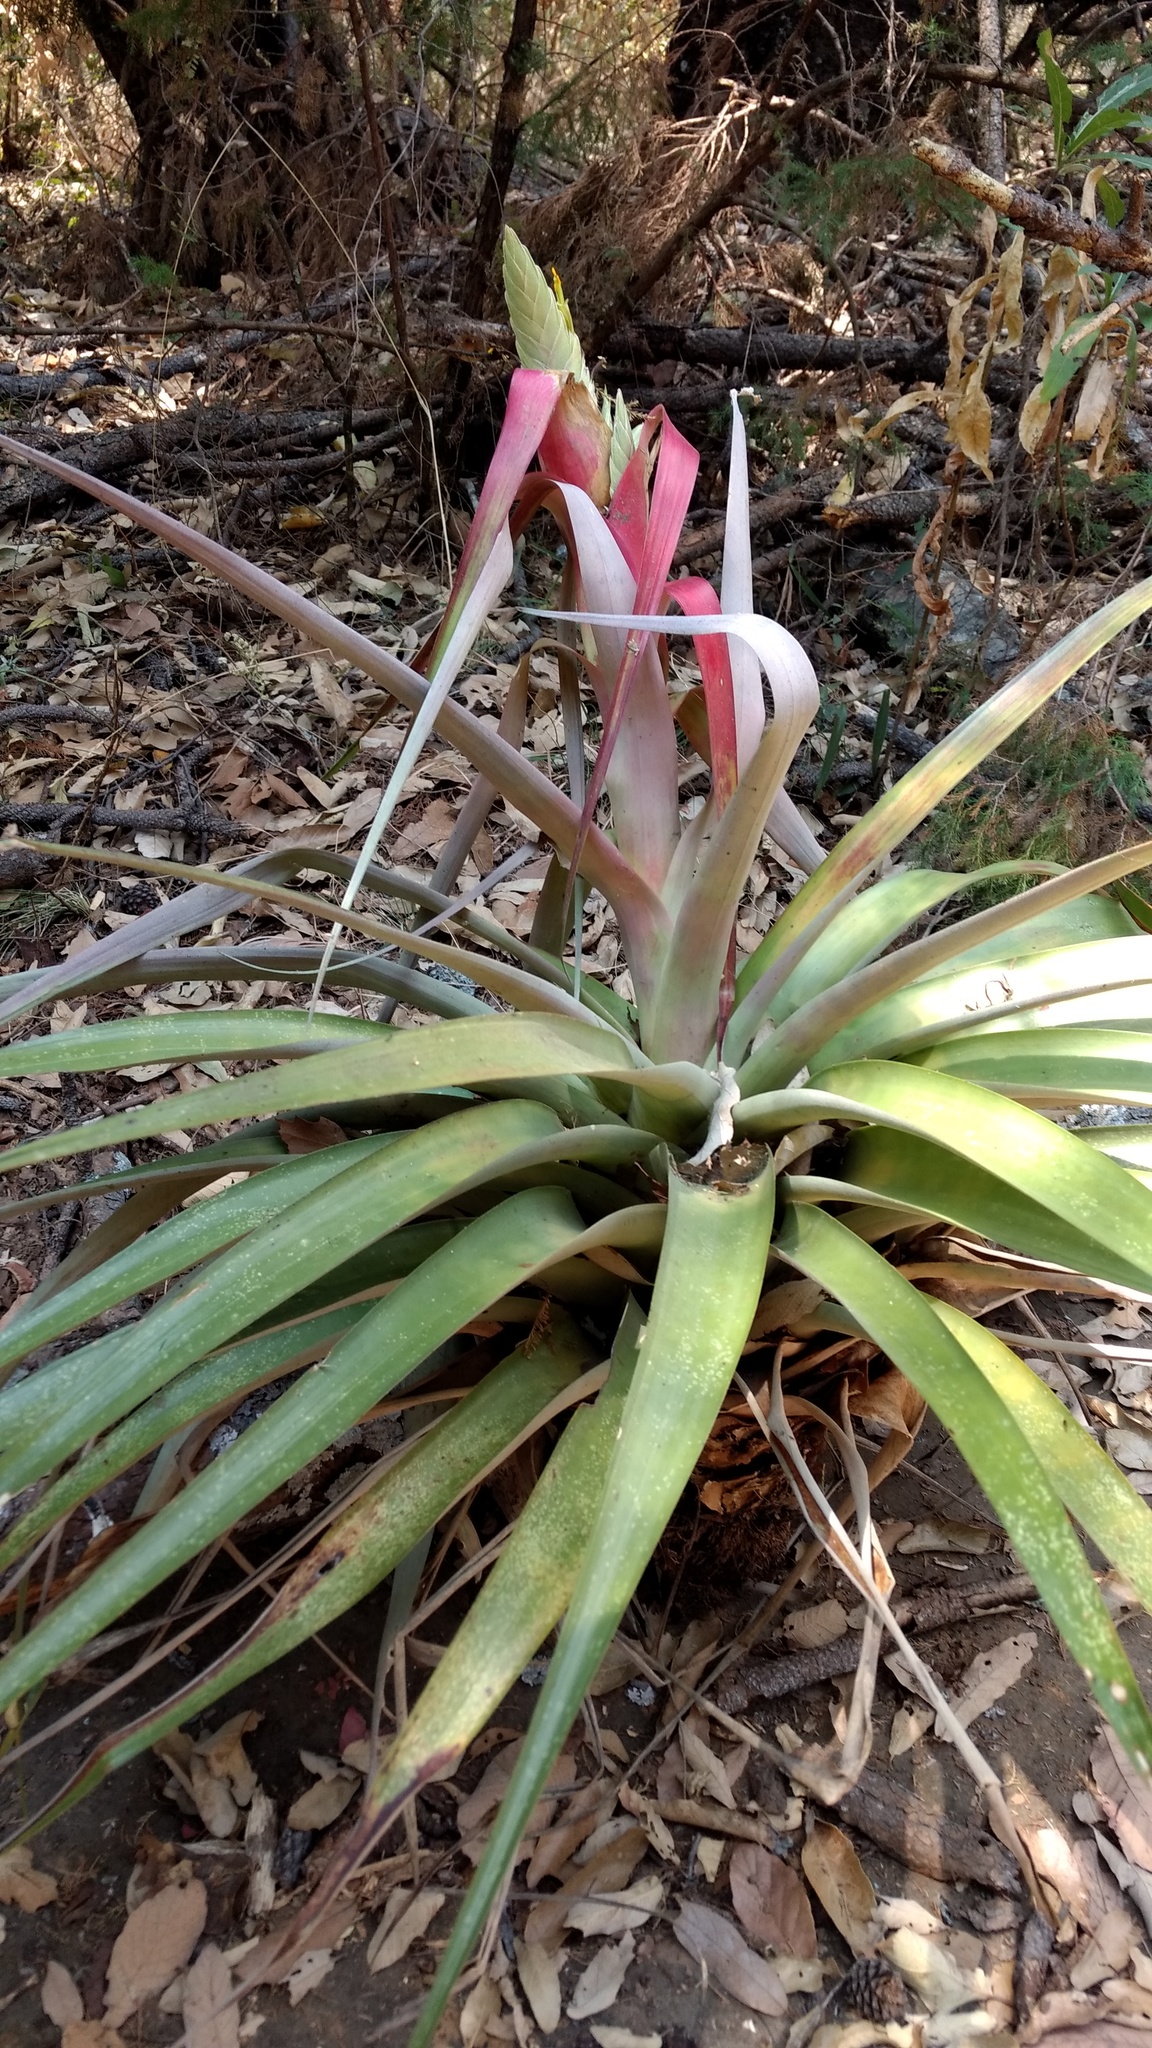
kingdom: Plantae
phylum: Tracheophyta
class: Liliopsida
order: Poales
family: Bromeliaceae
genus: Tillandsia
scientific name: Tillandsia prodigiosa
